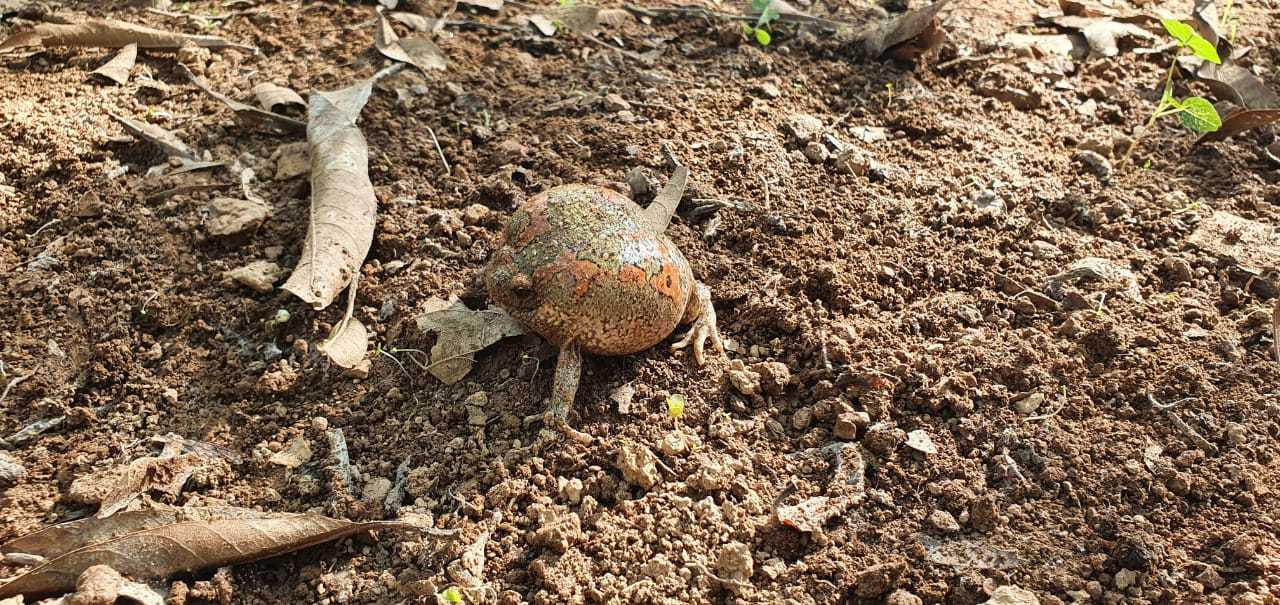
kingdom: Animalia
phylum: Chordata
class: Amphibia
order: Anura
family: Microhylidae
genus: Uperodon
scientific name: Uperodon taprobanicus
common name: Ceylon kaloula
